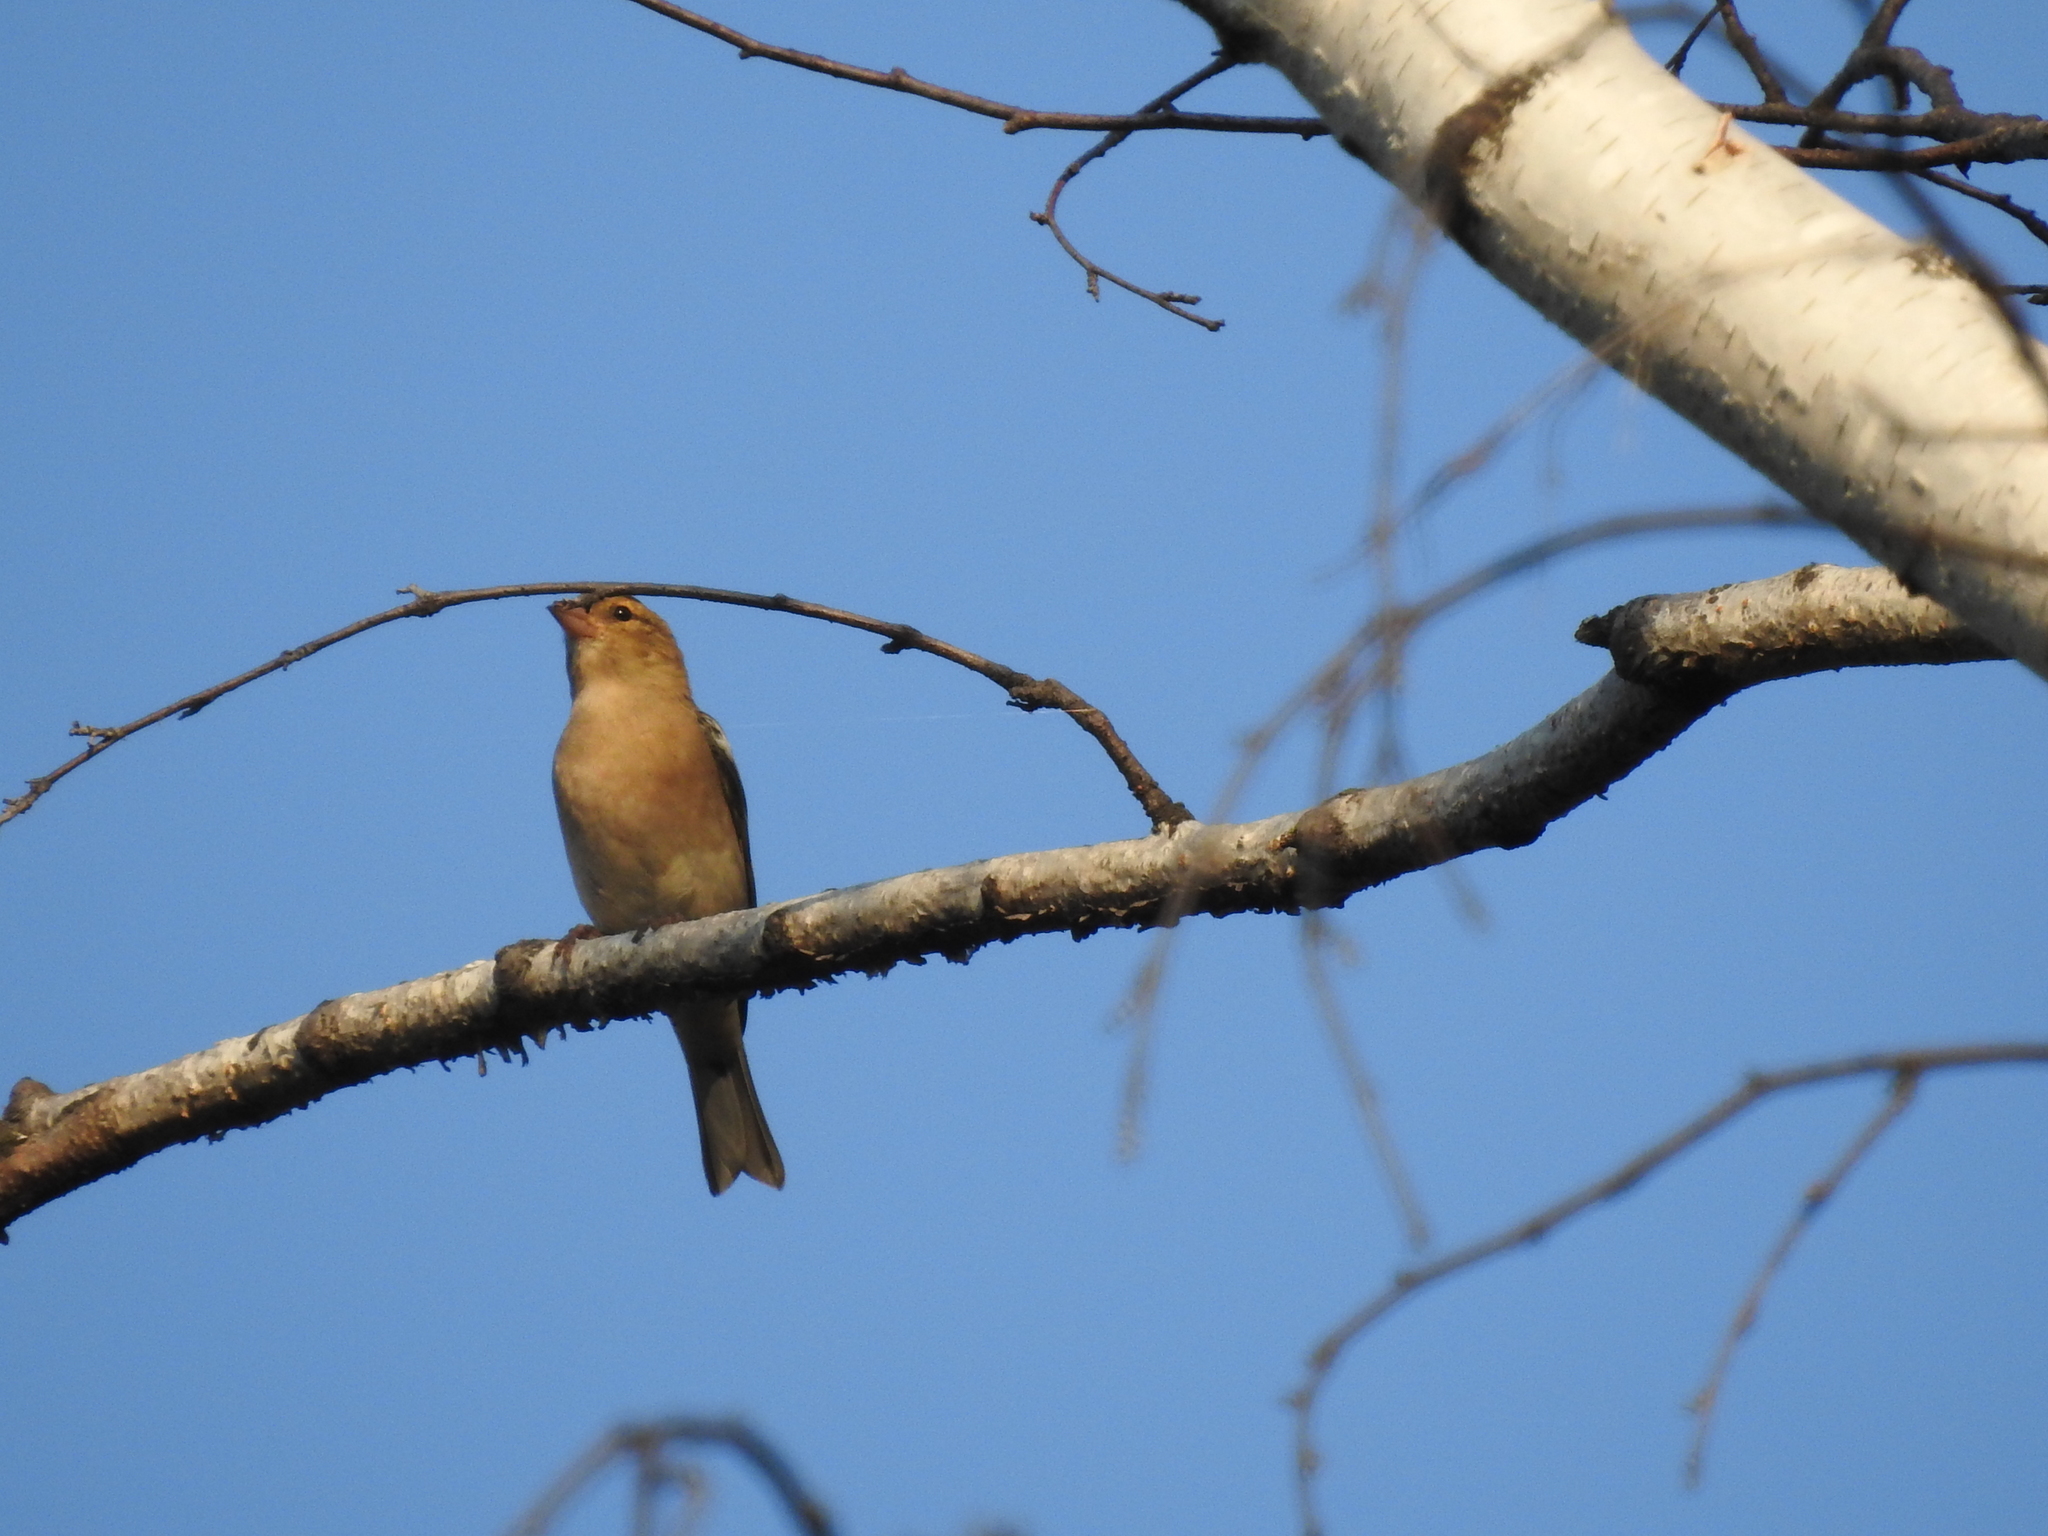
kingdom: Animalia
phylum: Chordata
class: Aves
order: Passeriformes
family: Fringillidae
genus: Fringilla
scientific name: Fringilla coelebs
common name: Common chaffinch
